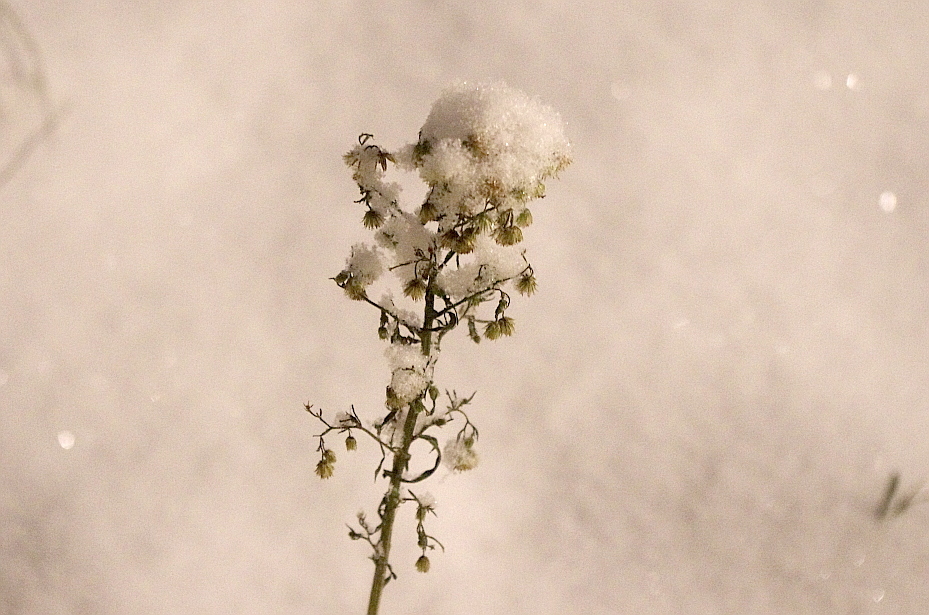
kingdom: Plantae
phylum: Tracheophyta
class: Magnoliopsida
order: Asterales
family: Asteraceae
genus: Erigeron
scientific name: Erigeron canadensis
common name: Canadian fleabane
